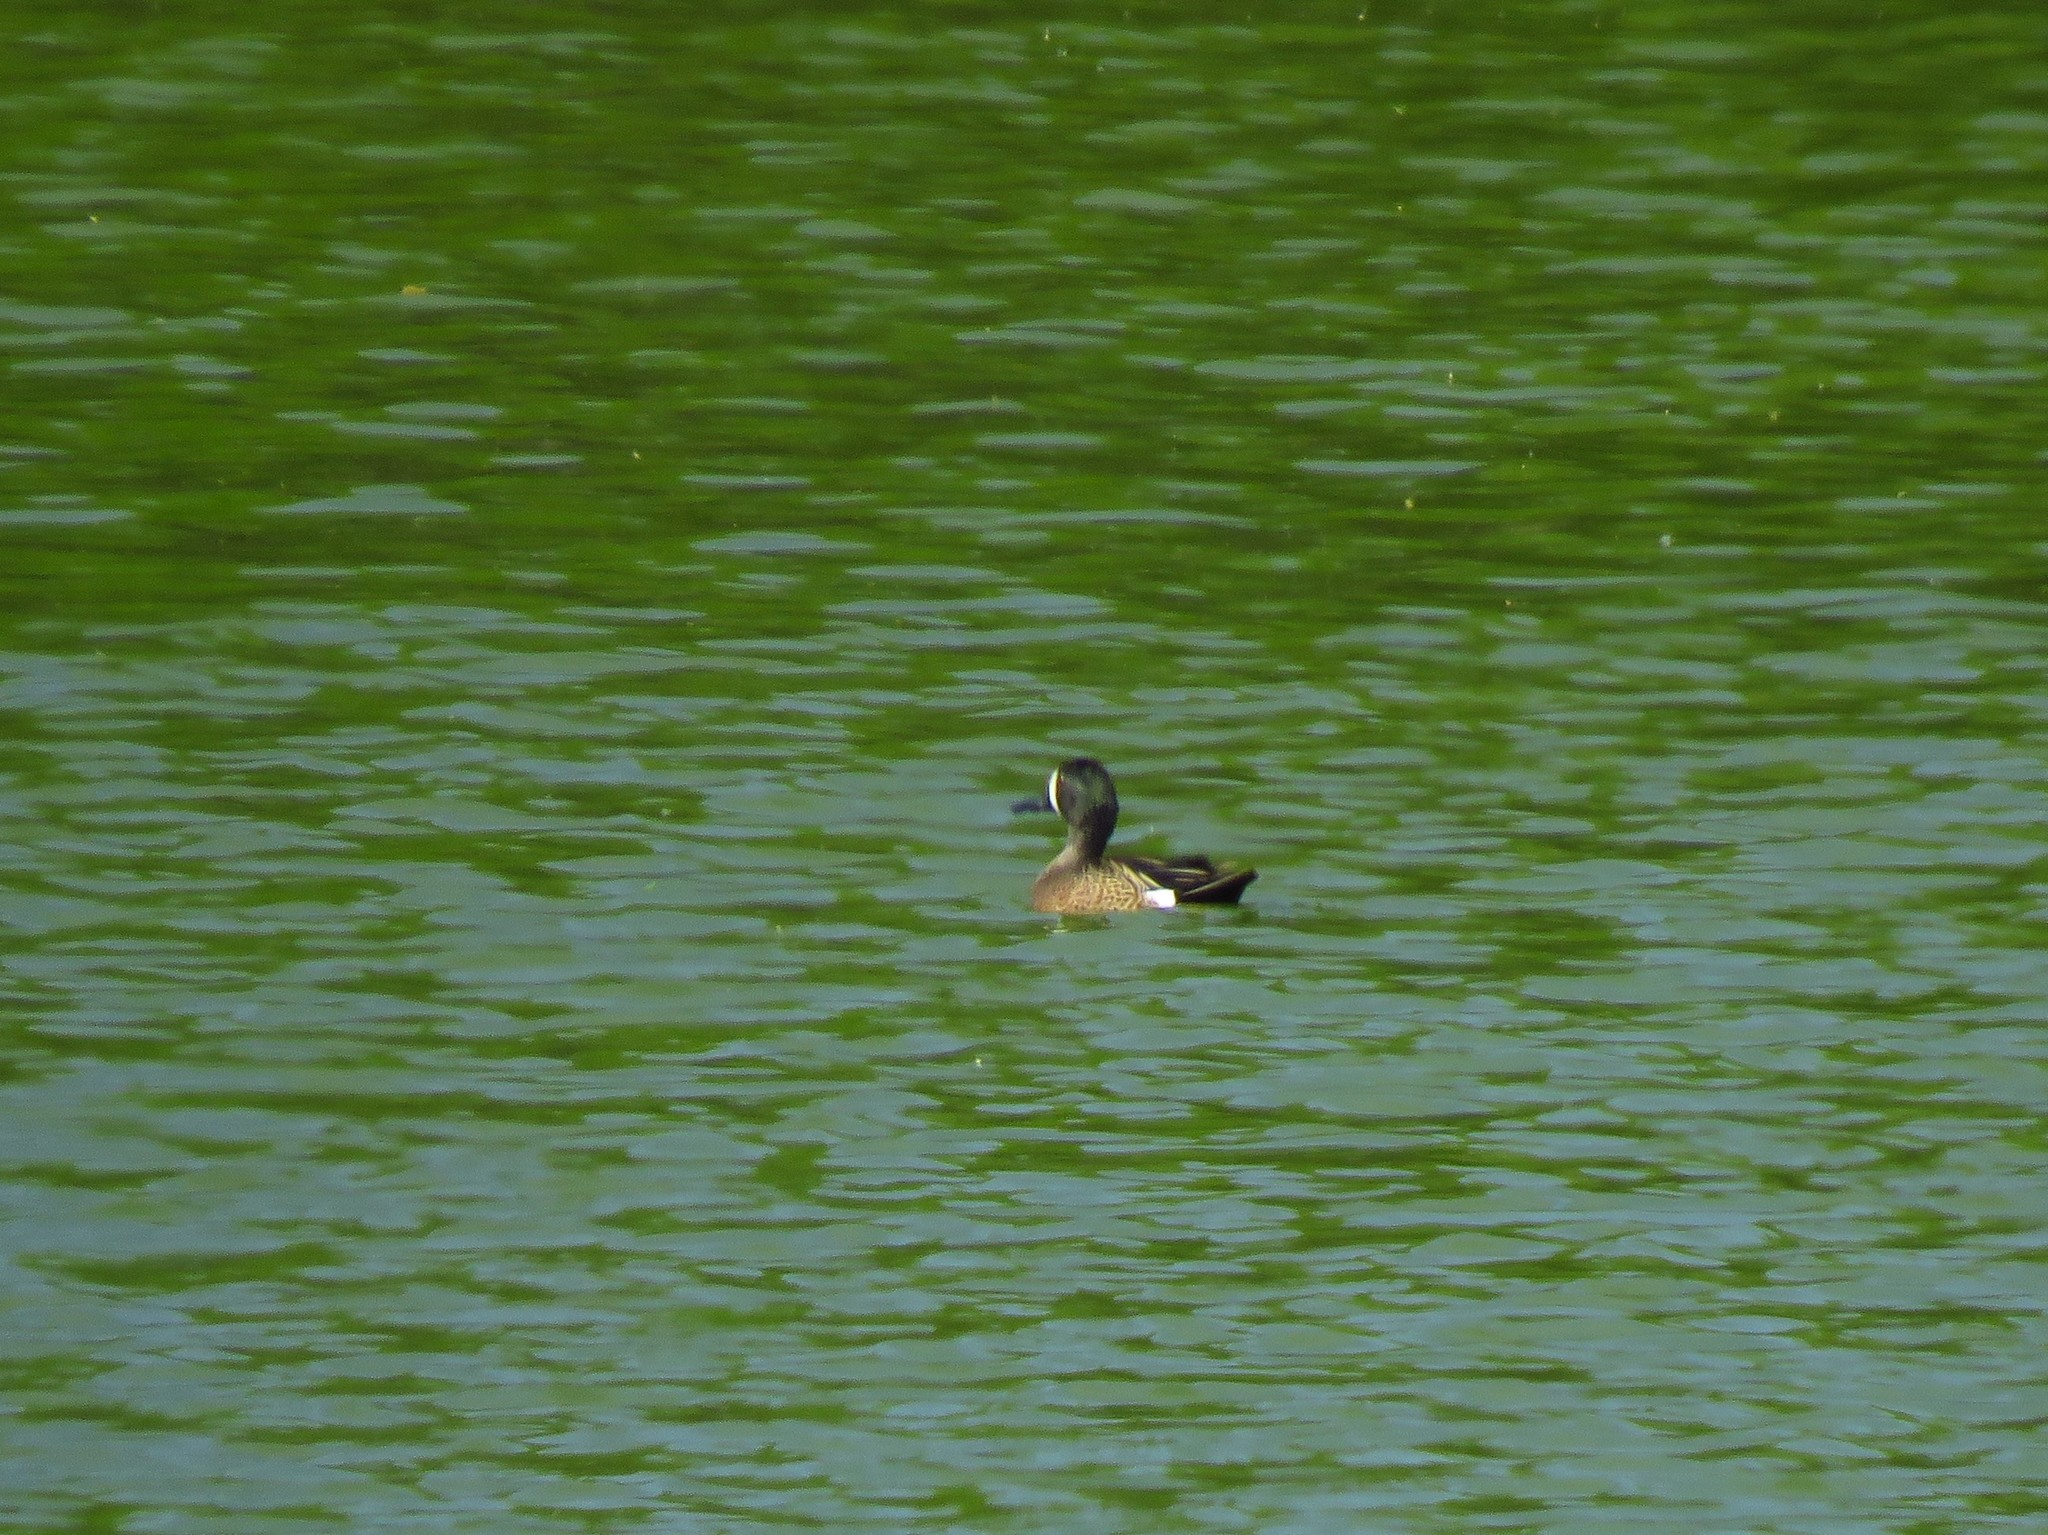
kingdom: Animalia
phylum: Chordata
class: Aves
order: Anseriformes
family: Anatidae
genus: Spatula
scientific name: Spatula discors
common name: Blue-winged teal
